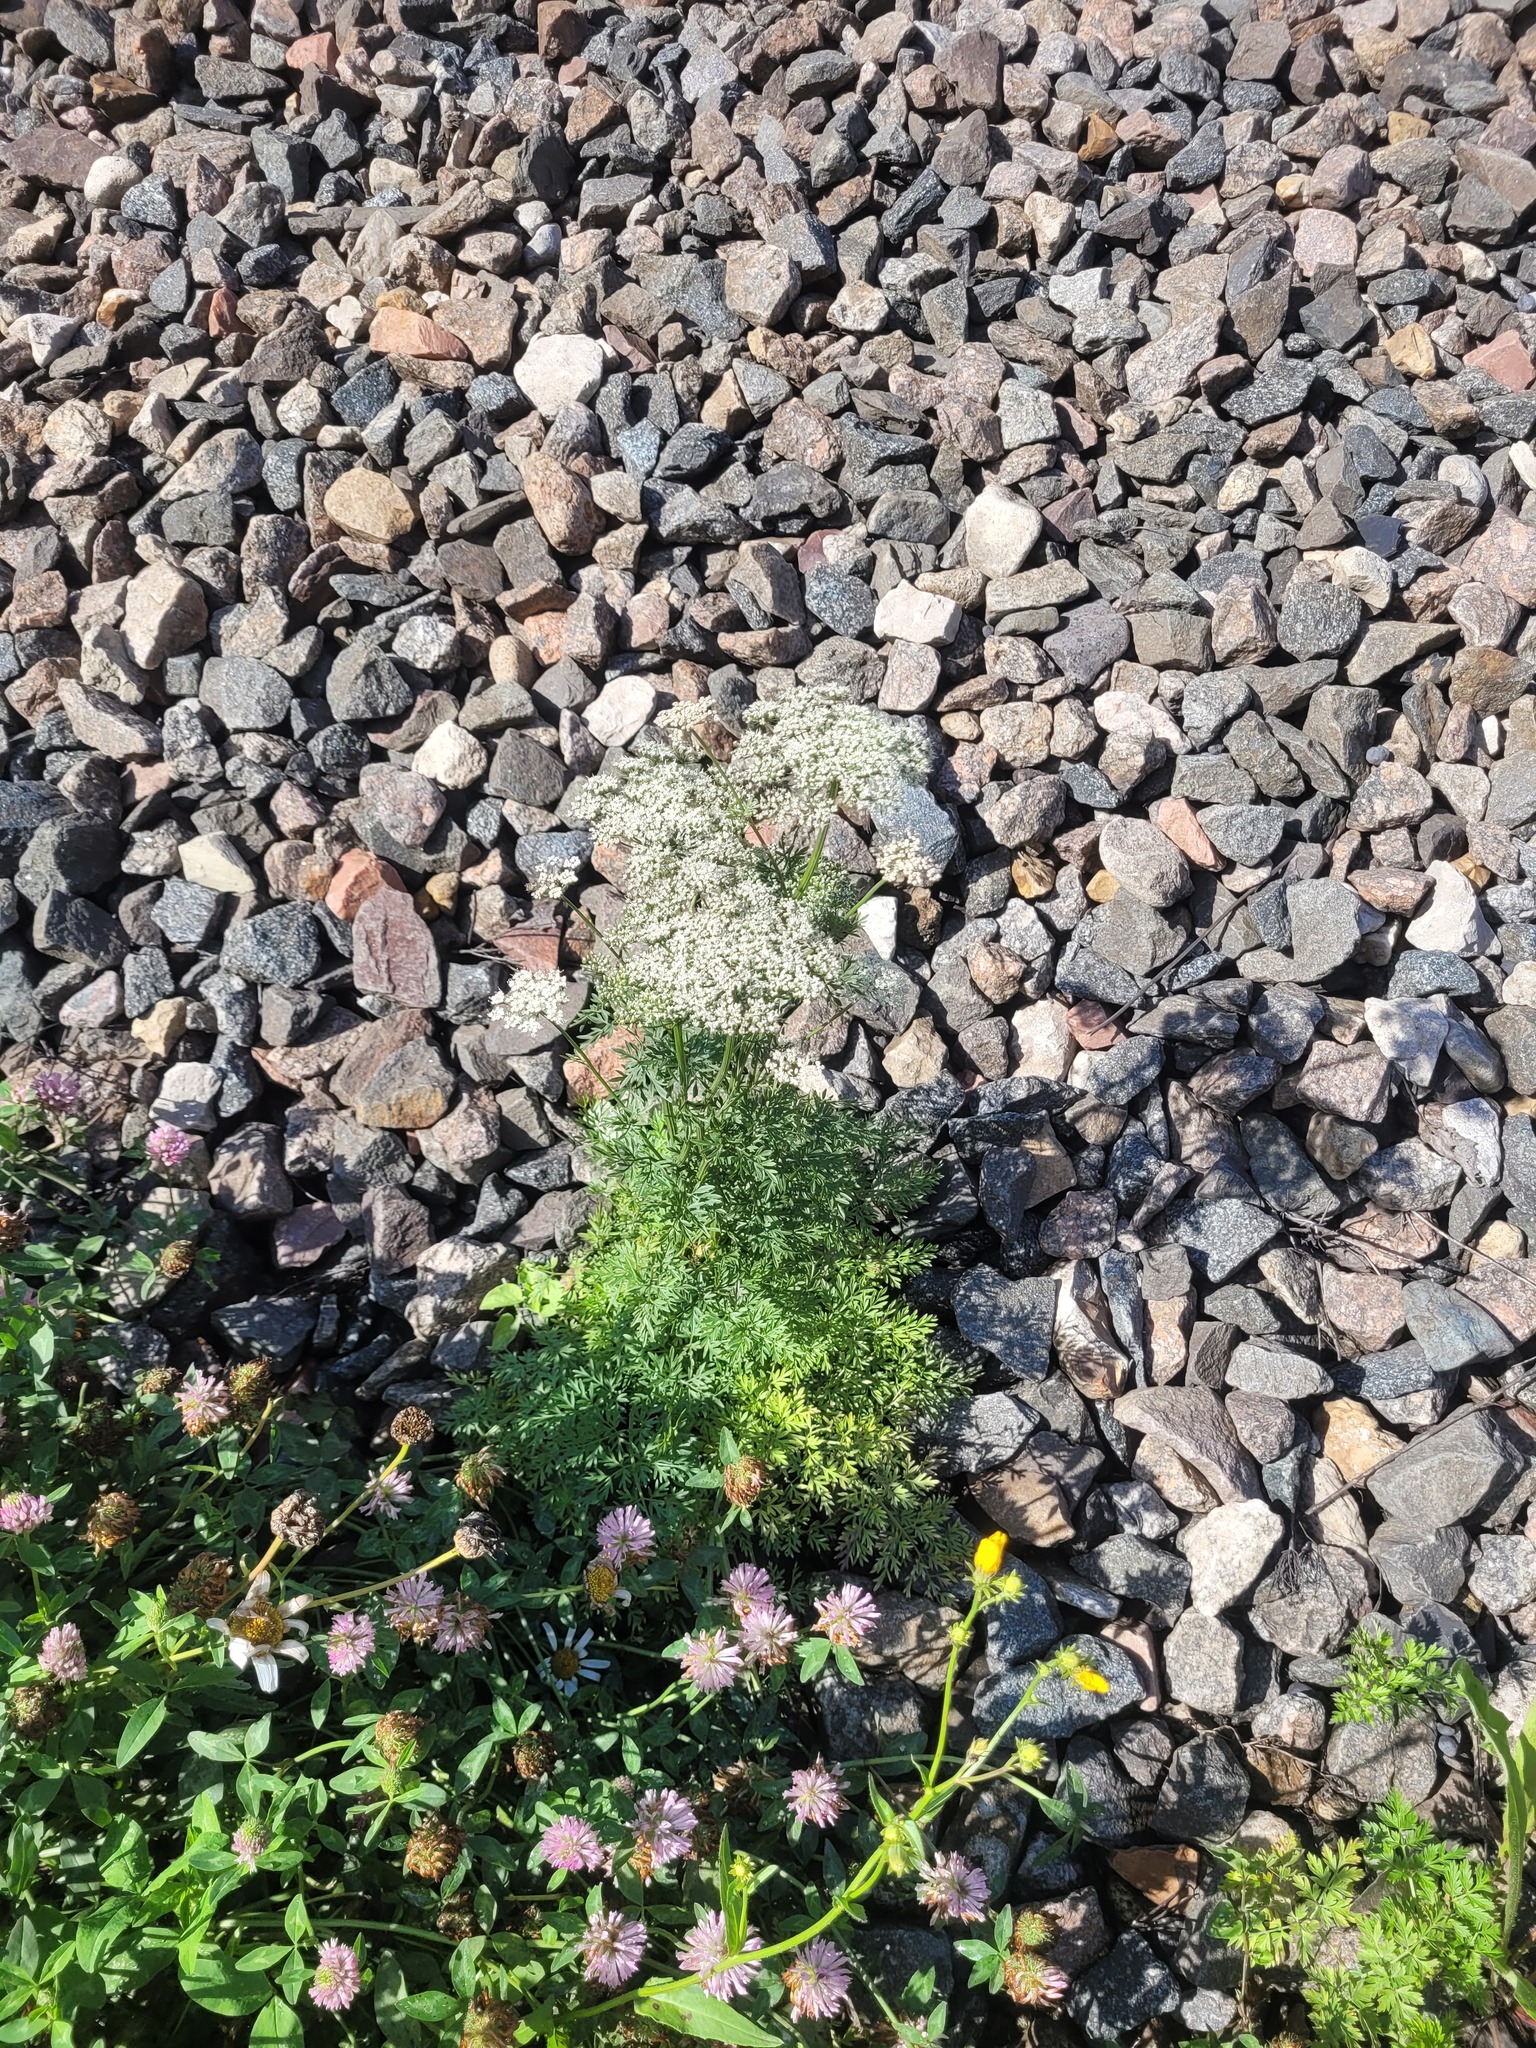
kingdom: Plantae
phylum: Tracheophyta
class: Magnoliopsida
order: Apiales
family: Apiaceae
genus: Selinum
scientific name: Selinum carvifolia
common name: Cambridge milk-parsley
